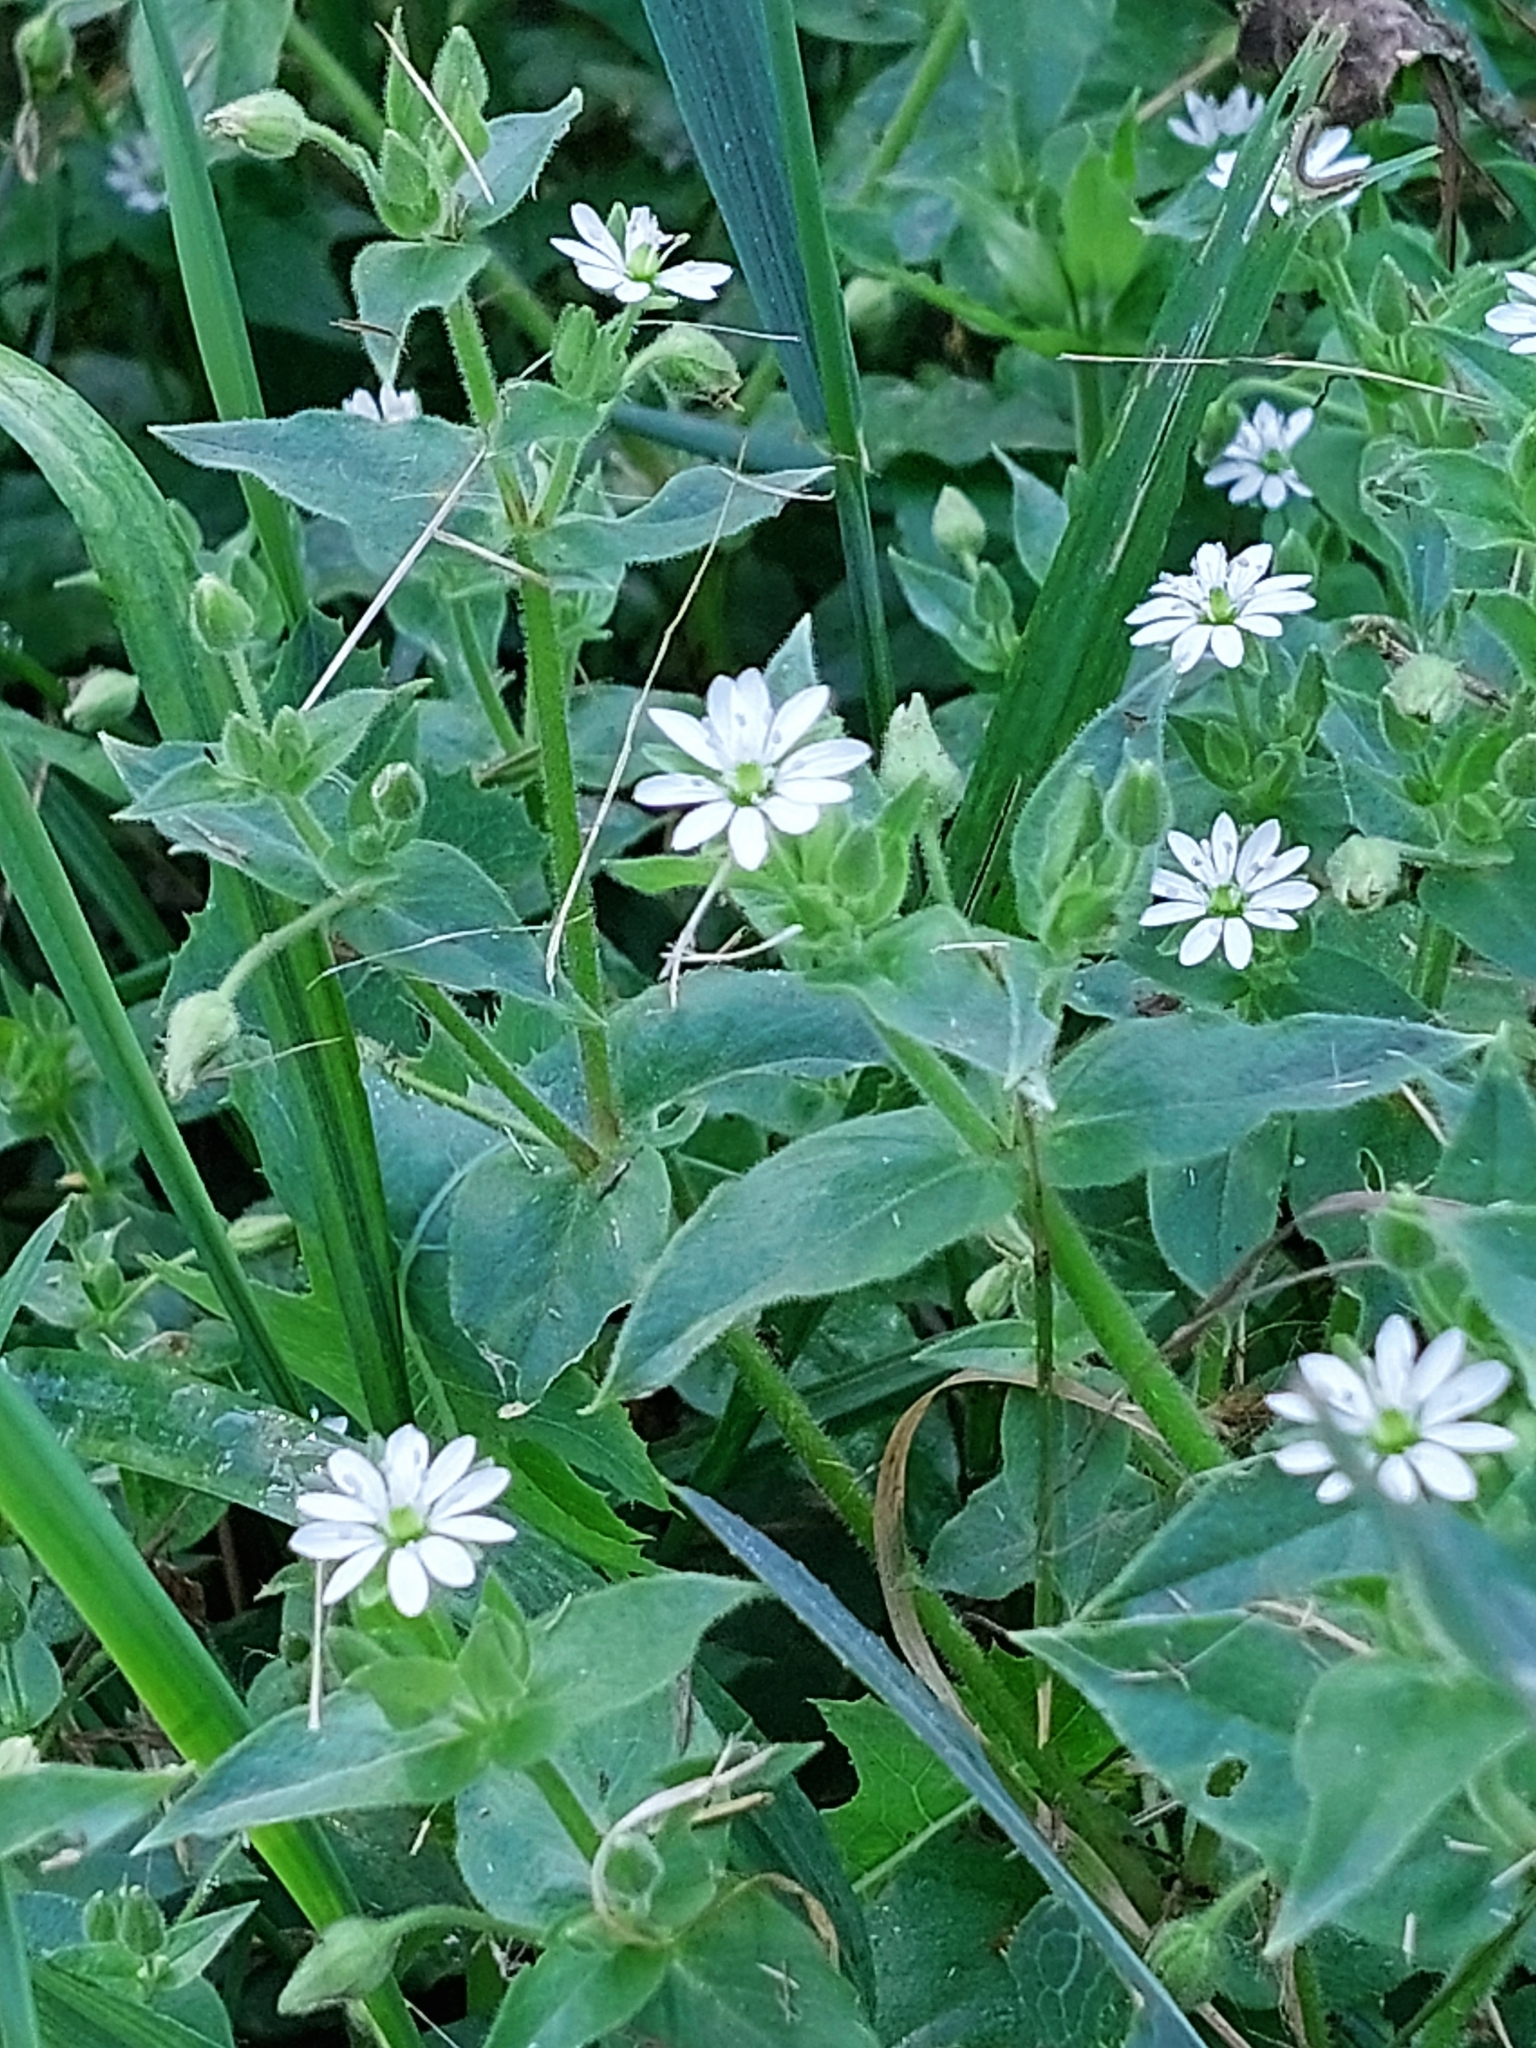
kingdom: Plantae
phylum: Tracheophyta
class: Magnoliopsida
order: Caryophyllales
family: Caryophyllaceae
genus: Stellaria
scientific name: Stellaria aquatica
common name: Water chickweed
